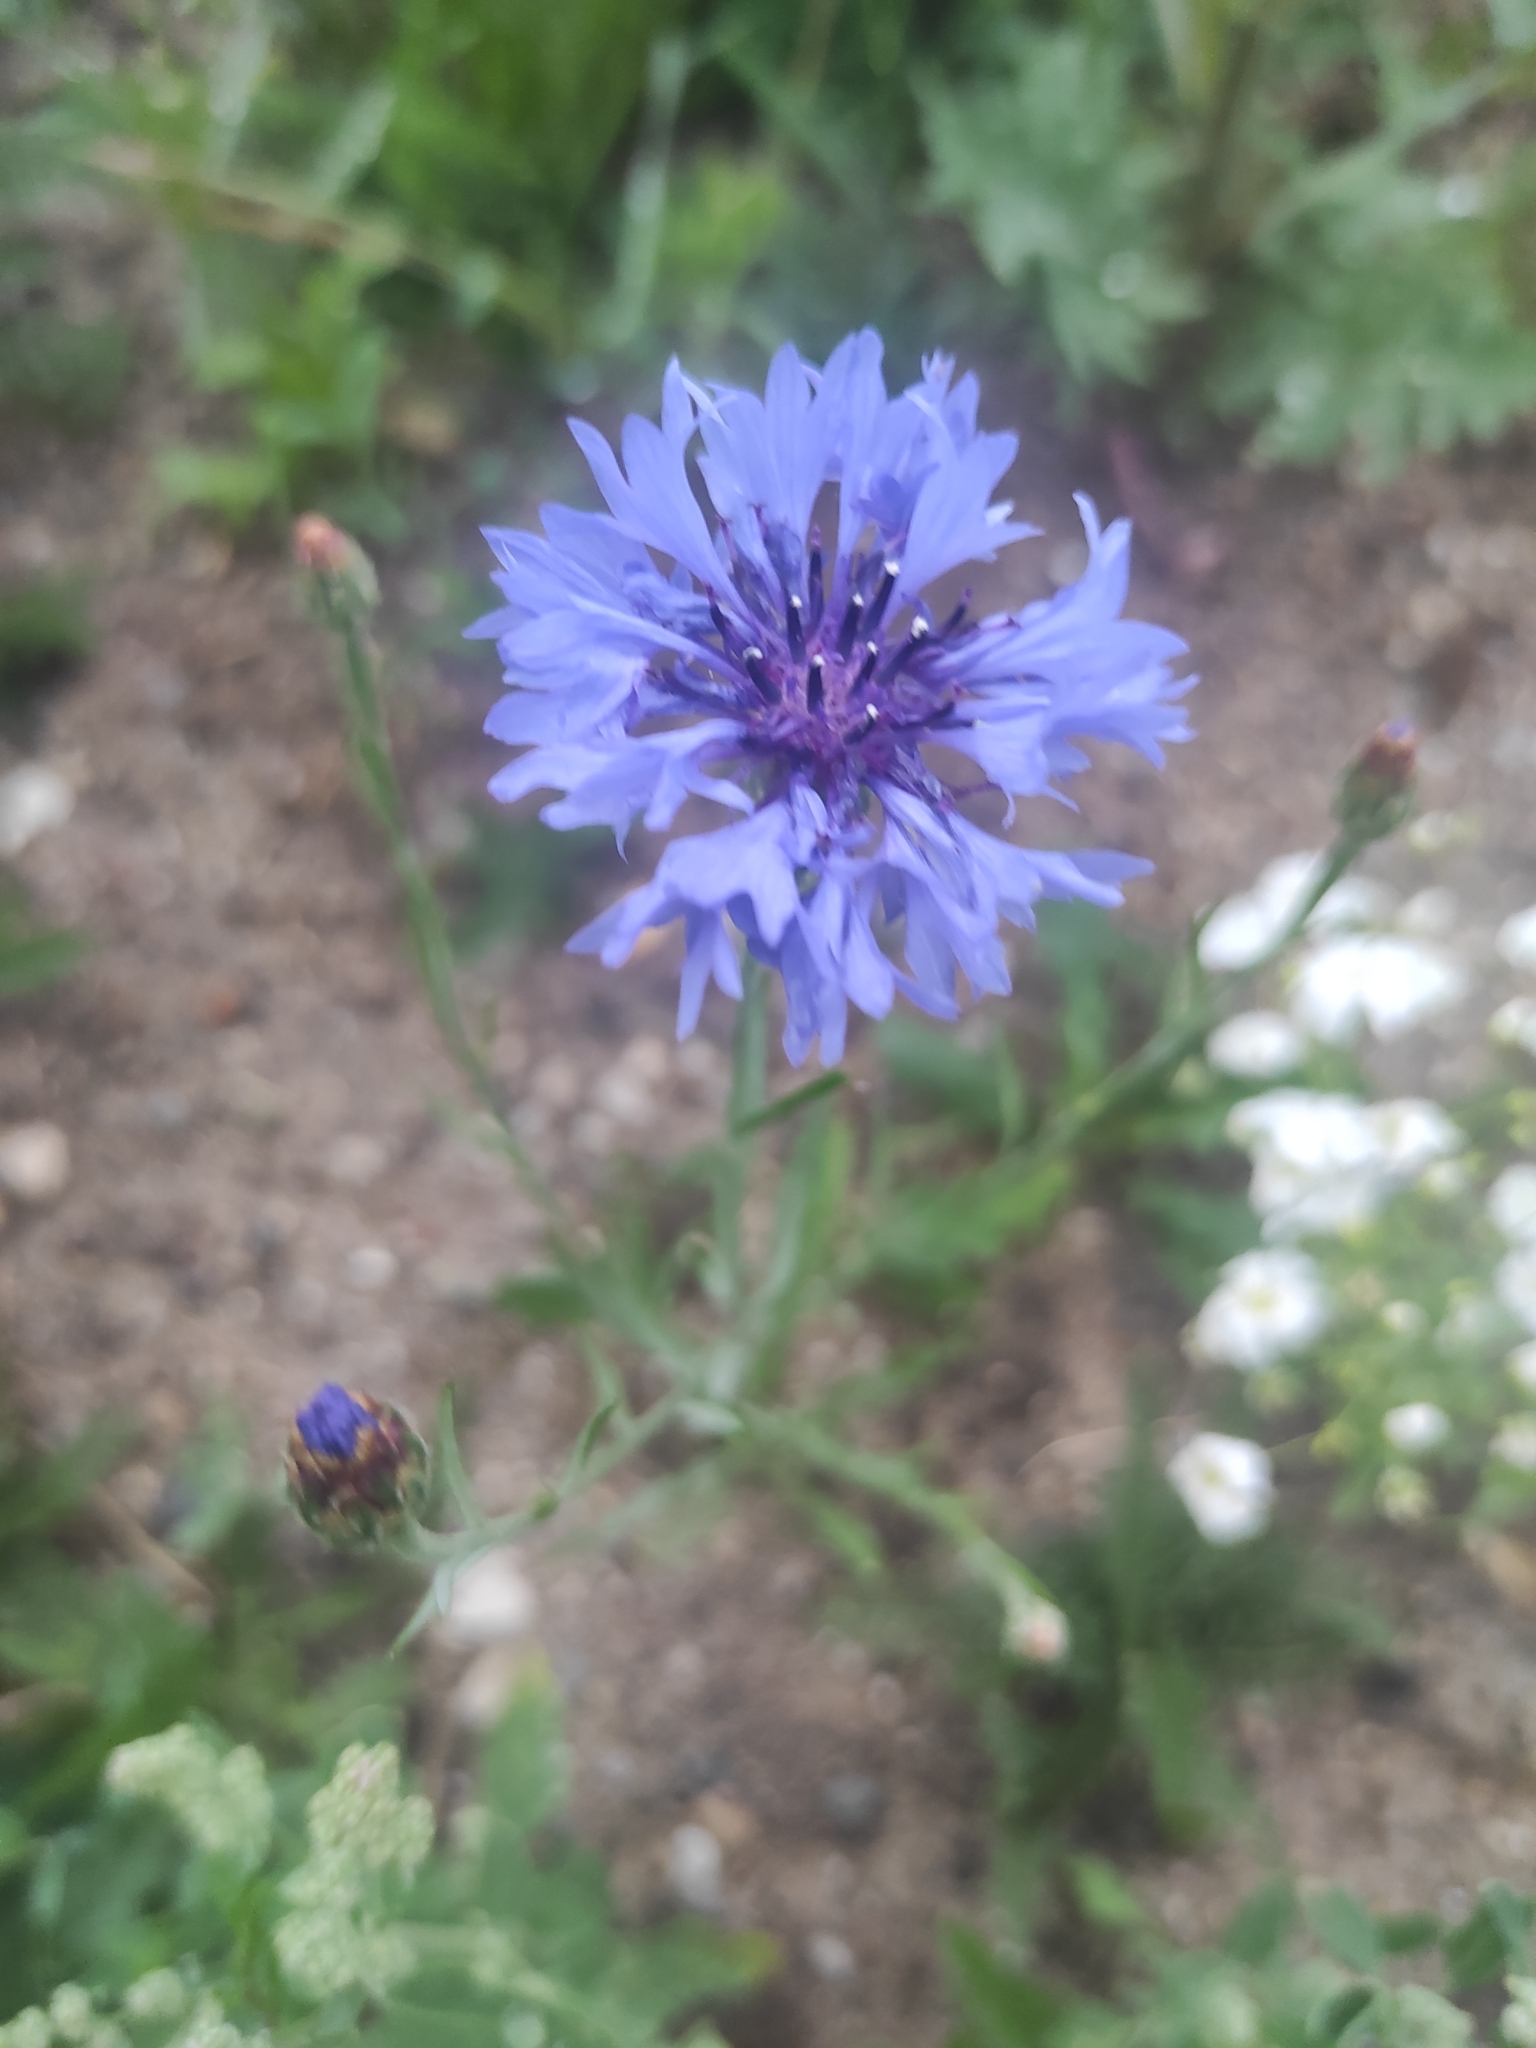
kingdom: Plantae
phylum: Tracheophyta
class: Magnoliopsida
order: Asterales
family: Asteraceae
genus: Centaurea
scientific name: Centaurea cyanus
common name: Cornflower
